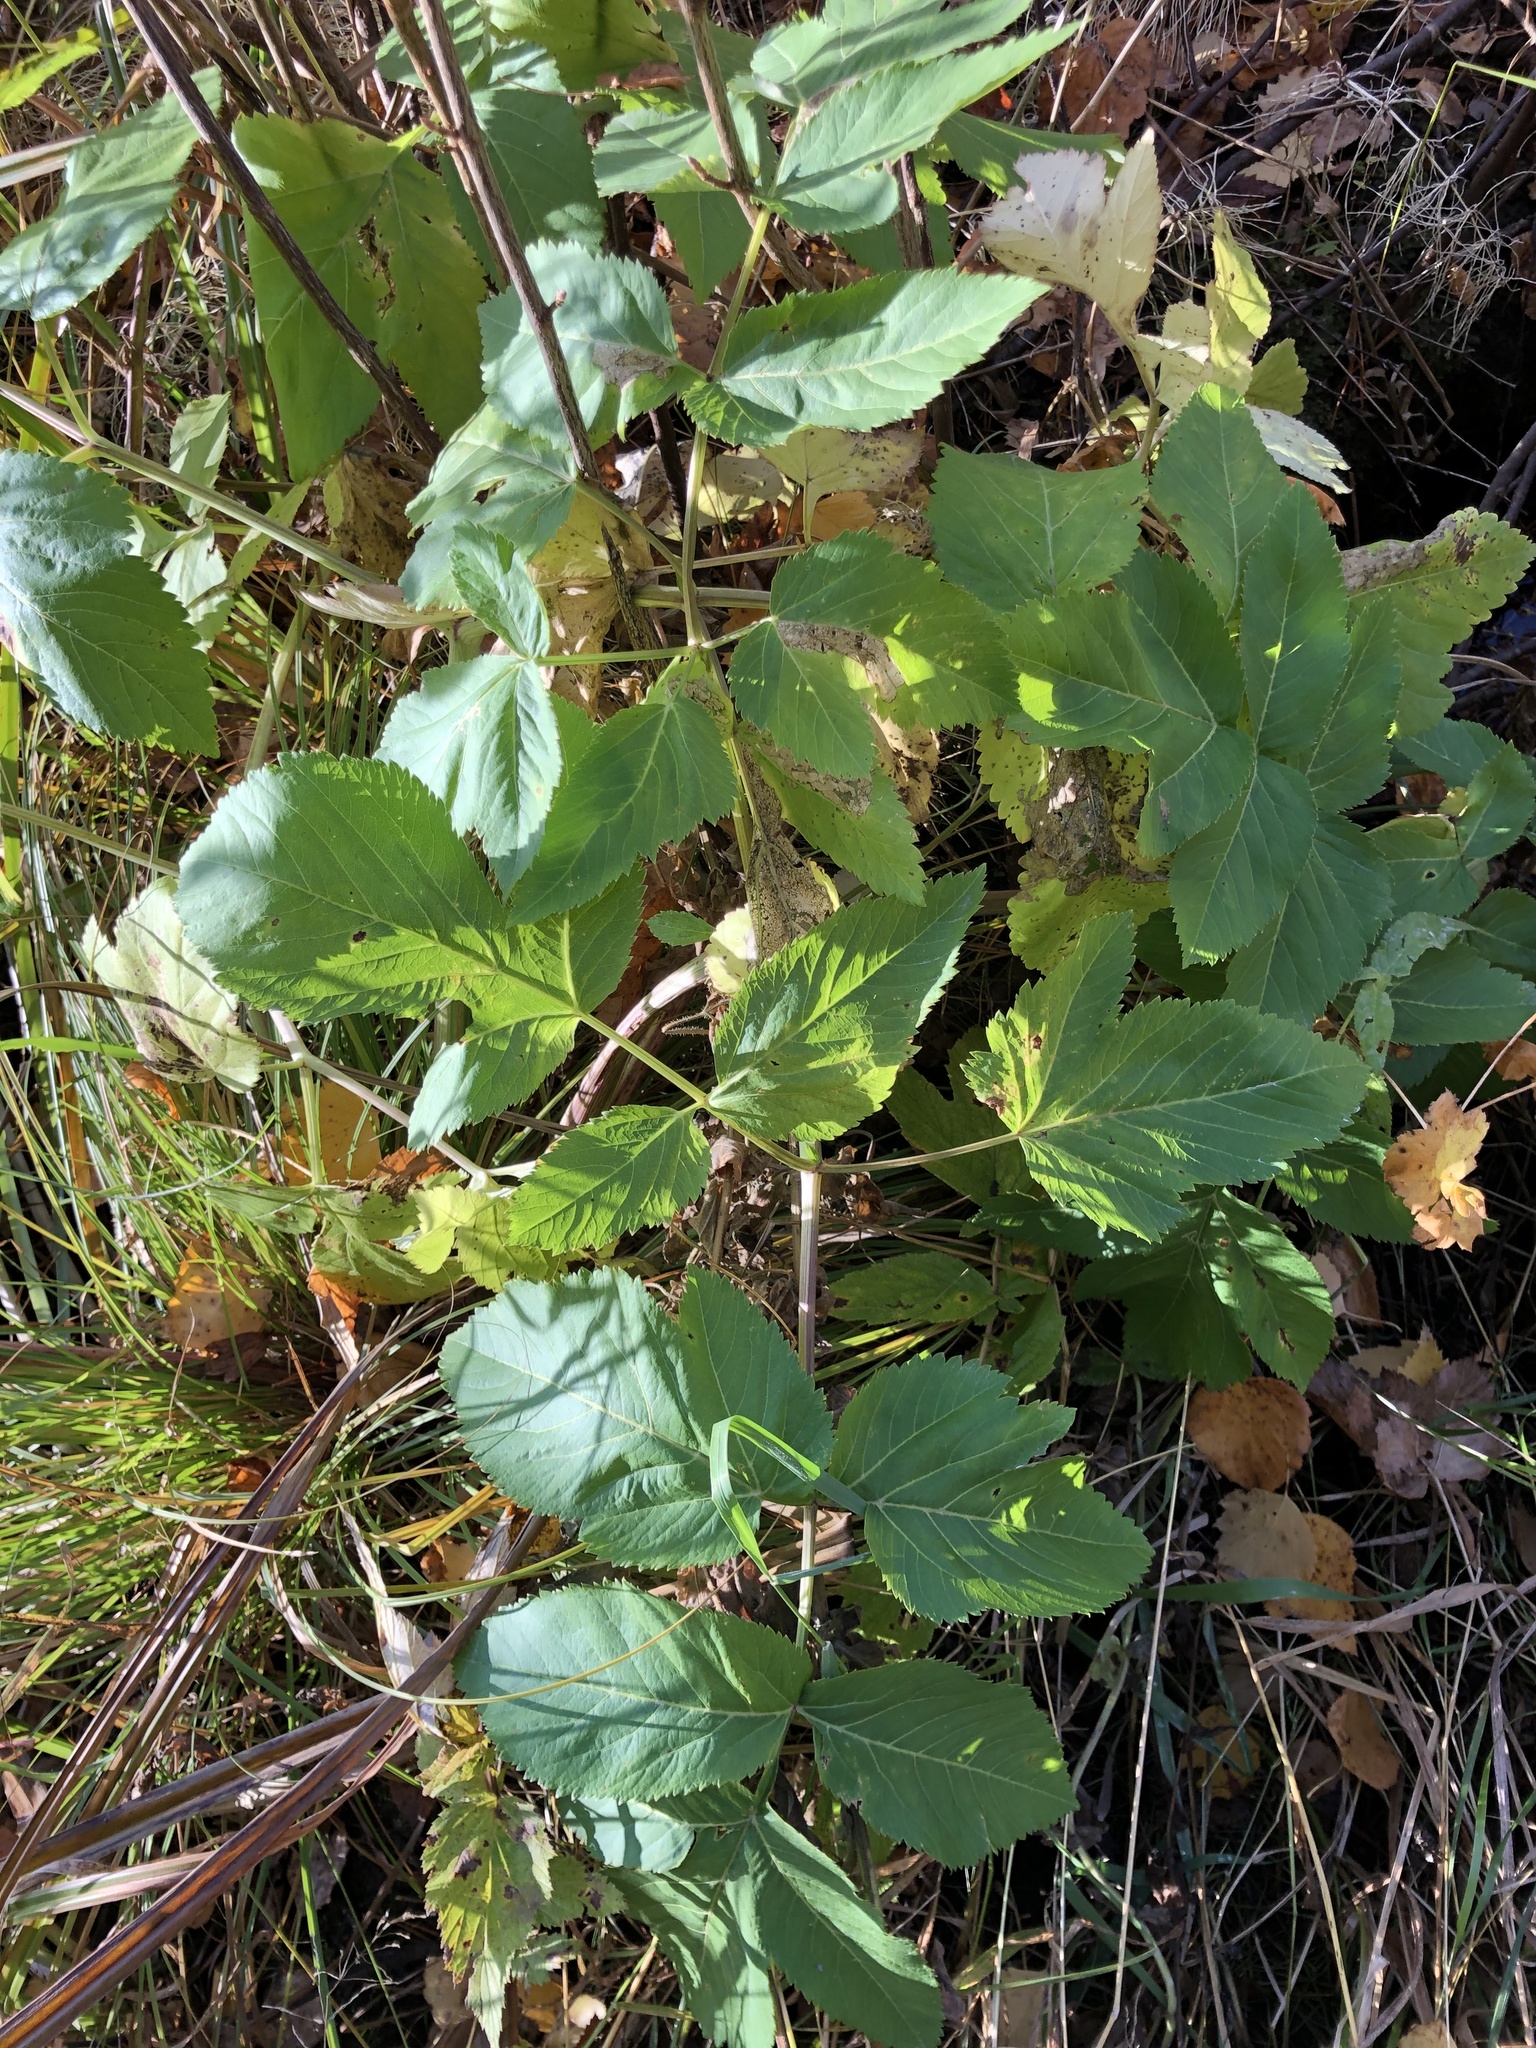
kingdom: Plantae
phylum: Tracheophyta
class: Magnoliopsida
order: Apiales
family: Apiaceae
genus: Aegopodium
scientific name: Aegopodium podagraria
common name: Ground-elder
